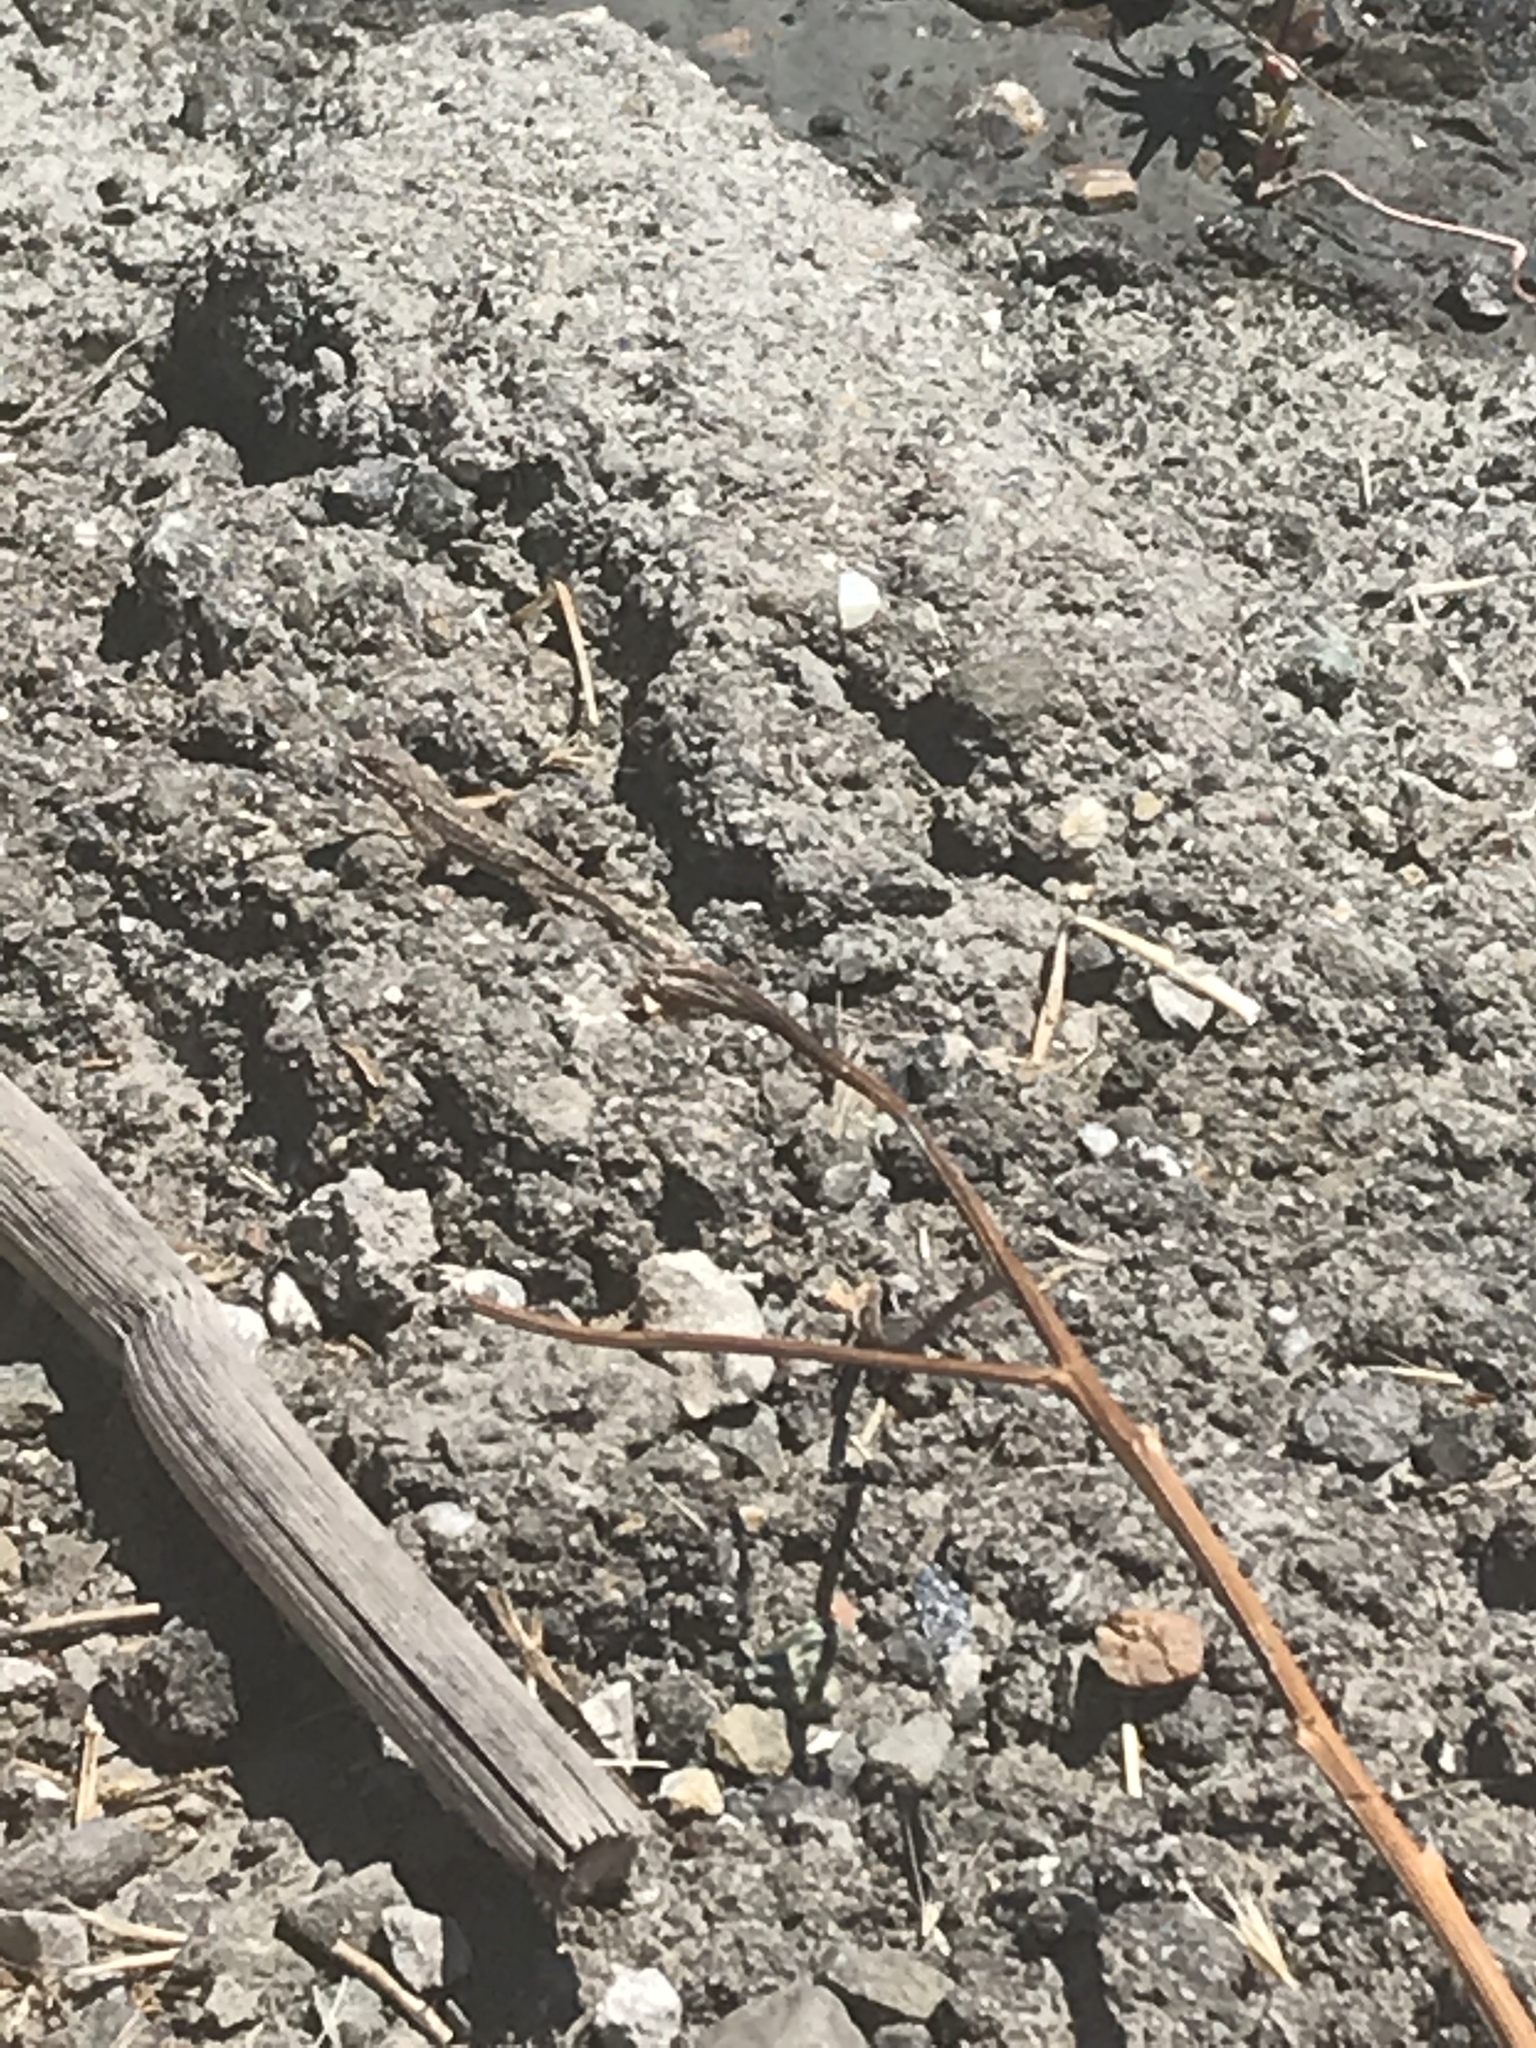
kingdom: Animalia
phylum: Chordata
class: Squamata
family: Phrynosomatidae
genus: Sceloporus
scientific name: Sceloporus occidentalis
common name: Western fence lizard
